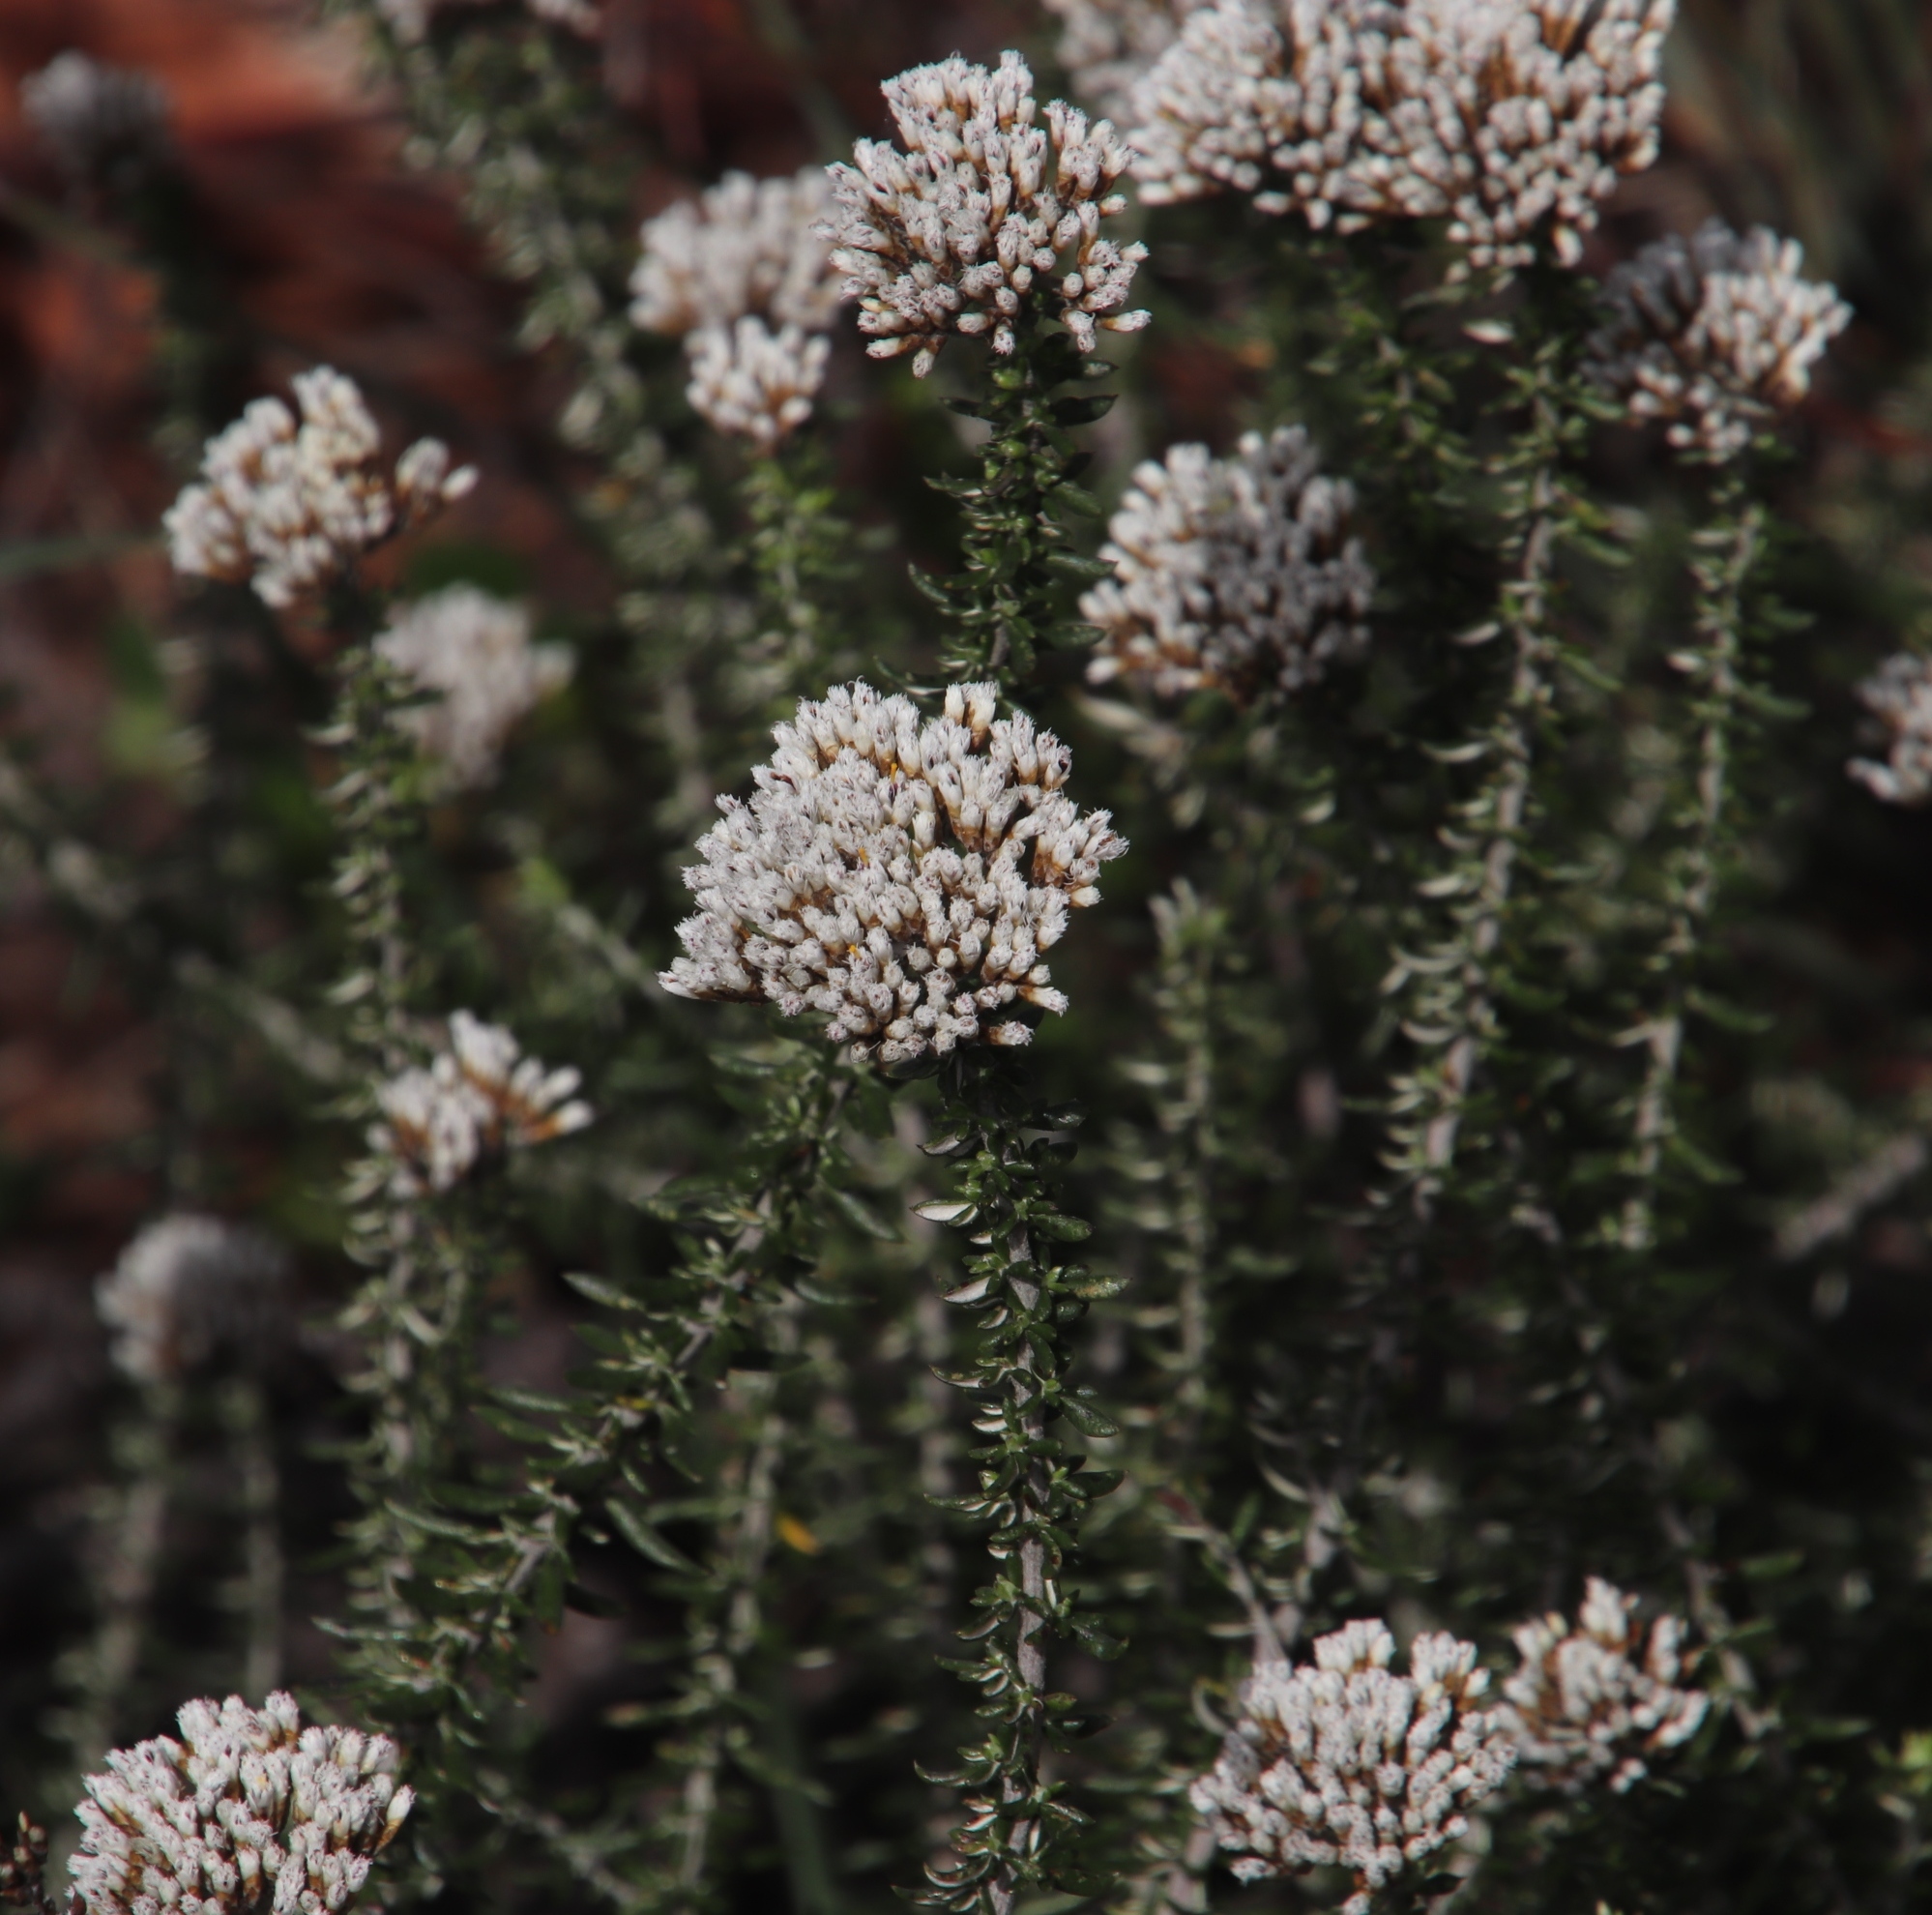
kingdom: Plantae
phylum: Tracheophyta
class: Magnoliopsida
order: Asterales
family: Asteraceae
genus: Metalasia
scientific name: Metalasia densa
